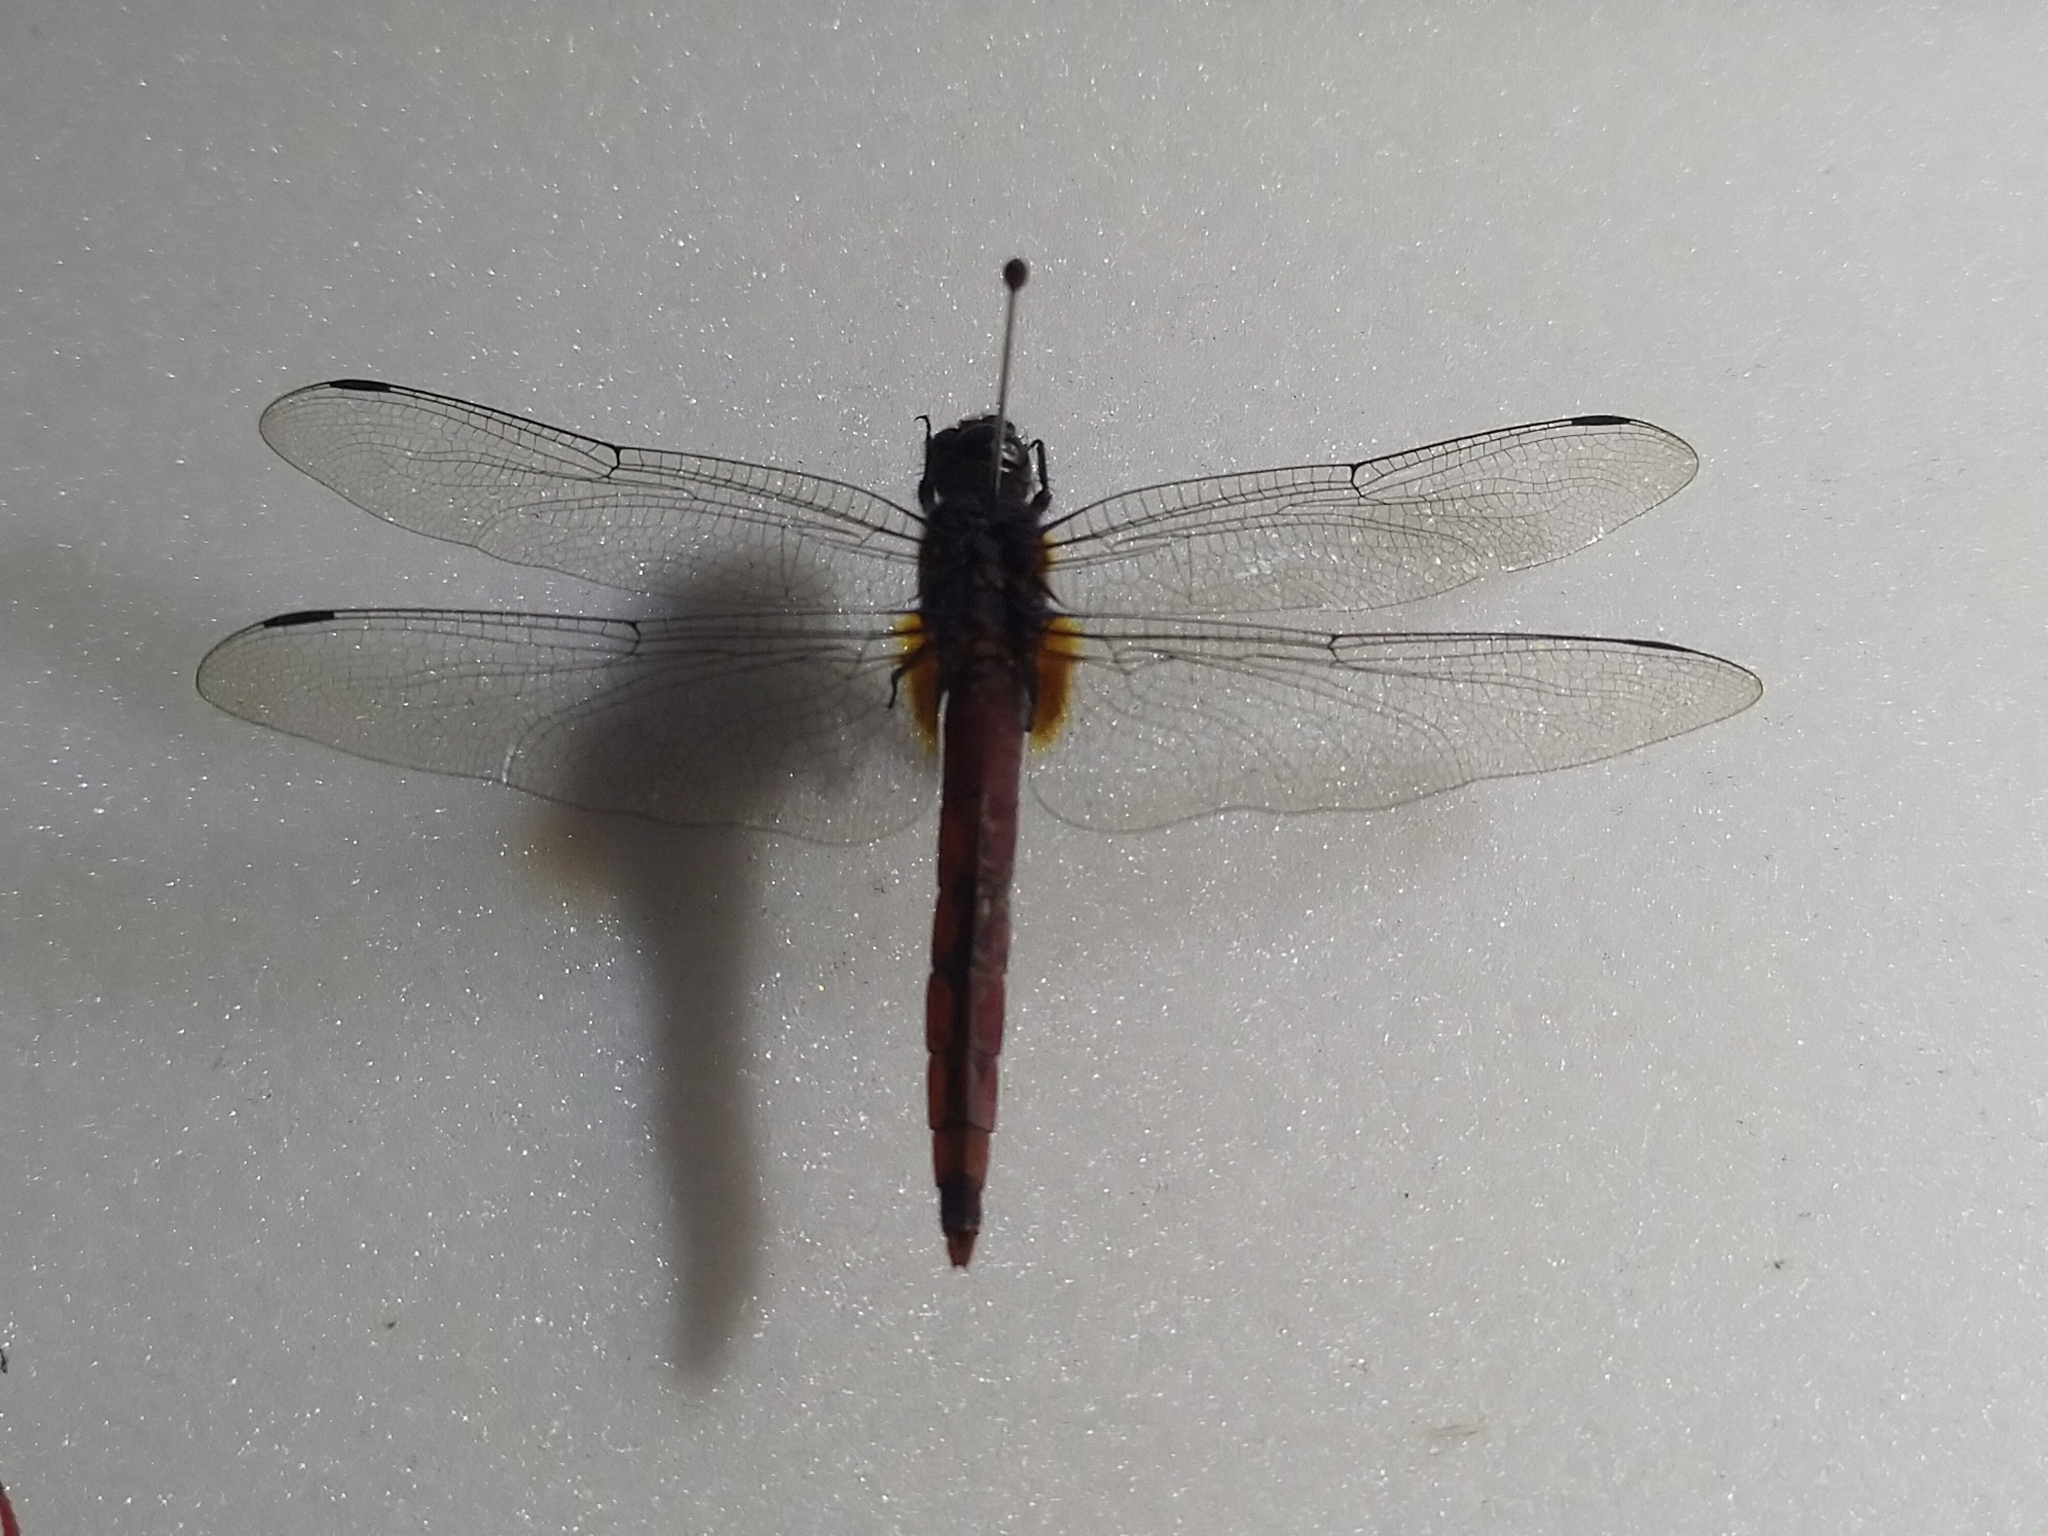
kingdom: Animalia
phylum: Arthropoda
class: Insecta
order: Odonata
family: Libellulidae
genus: Orthetrum
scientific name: Orthetrum pruinosum
